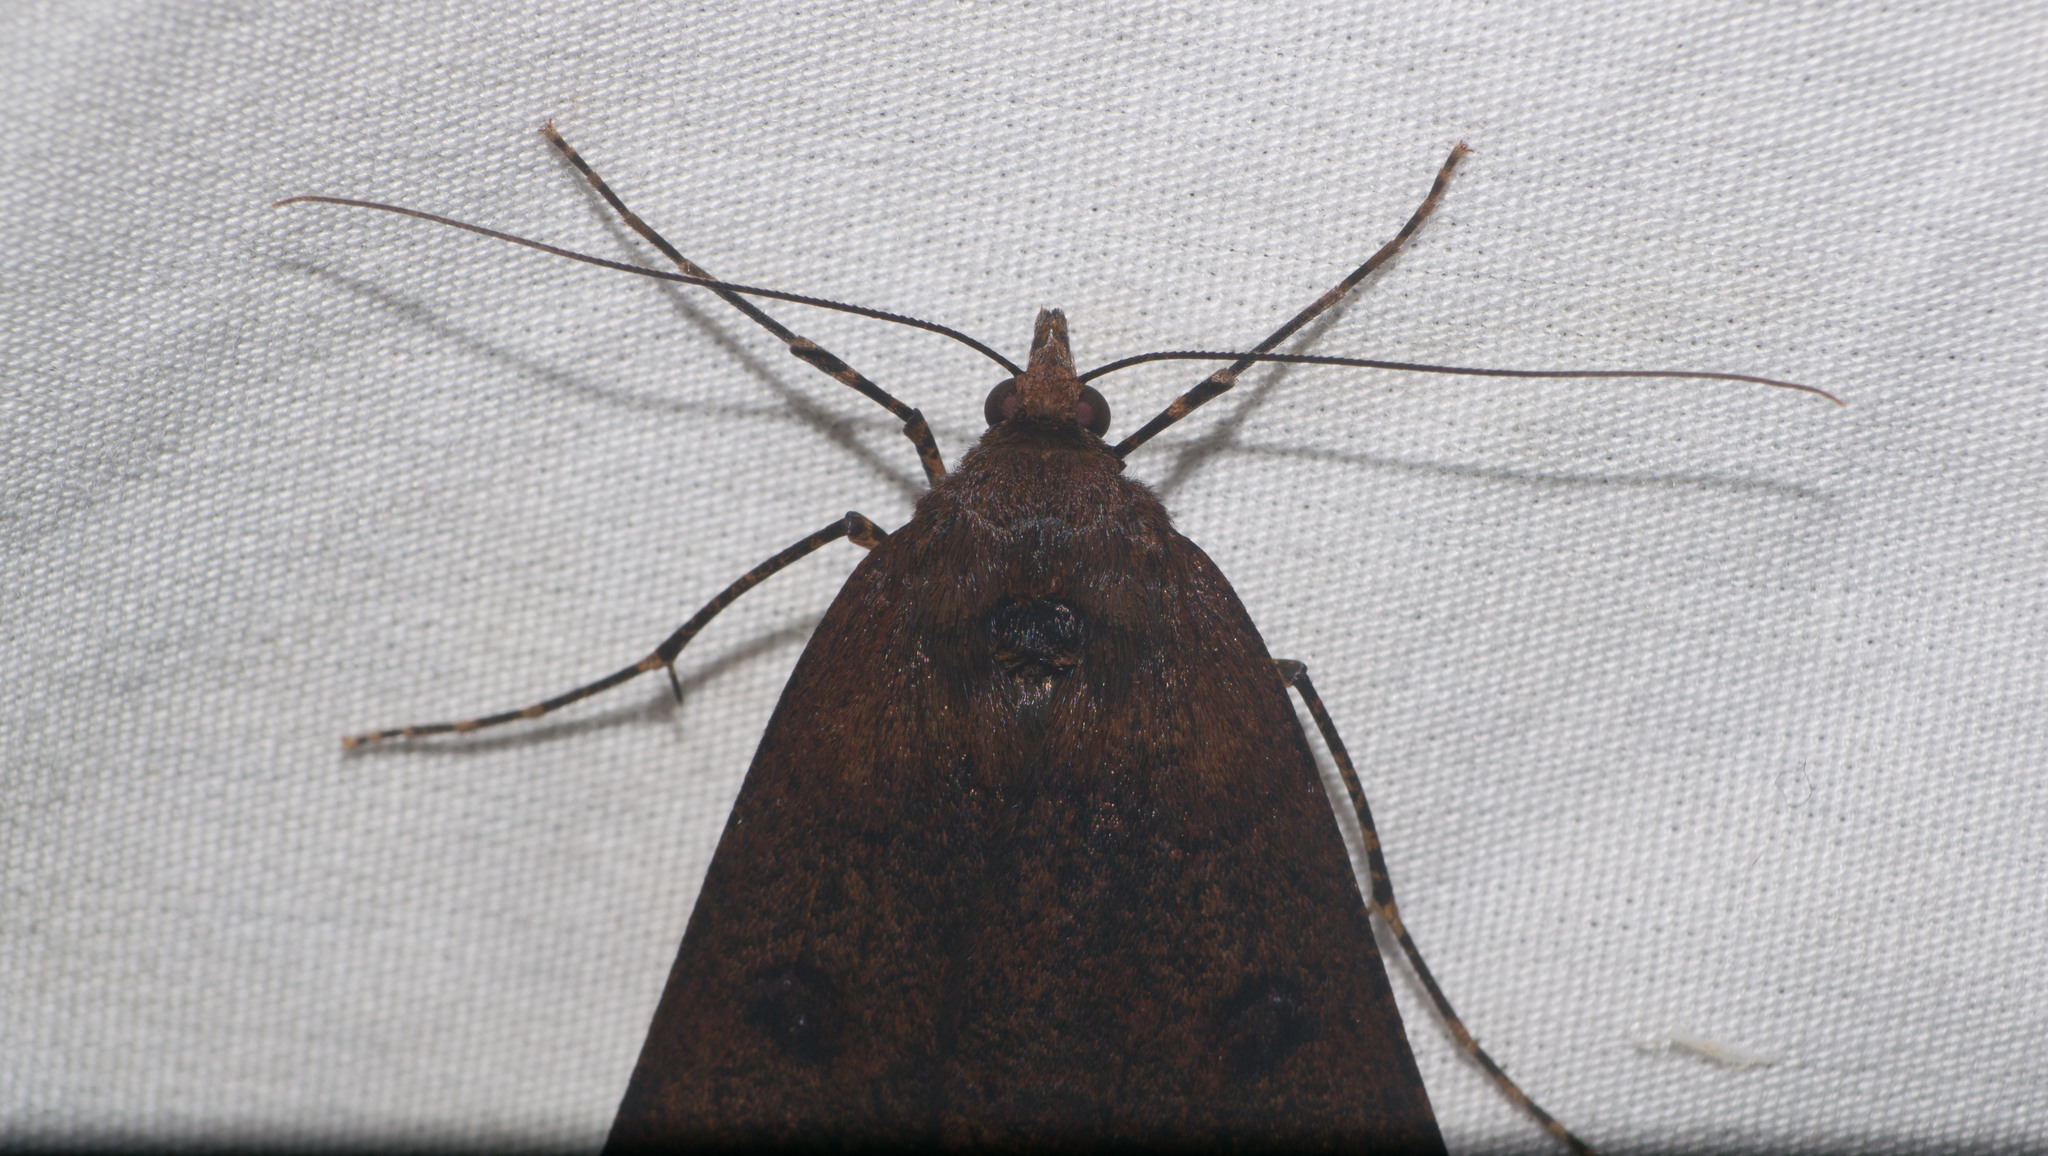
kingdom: Animalia
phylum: Arthropoda
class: Insecta
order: Lepidoptera
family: Geometridae
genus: Scotorythra
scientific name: Scotorythra rara
